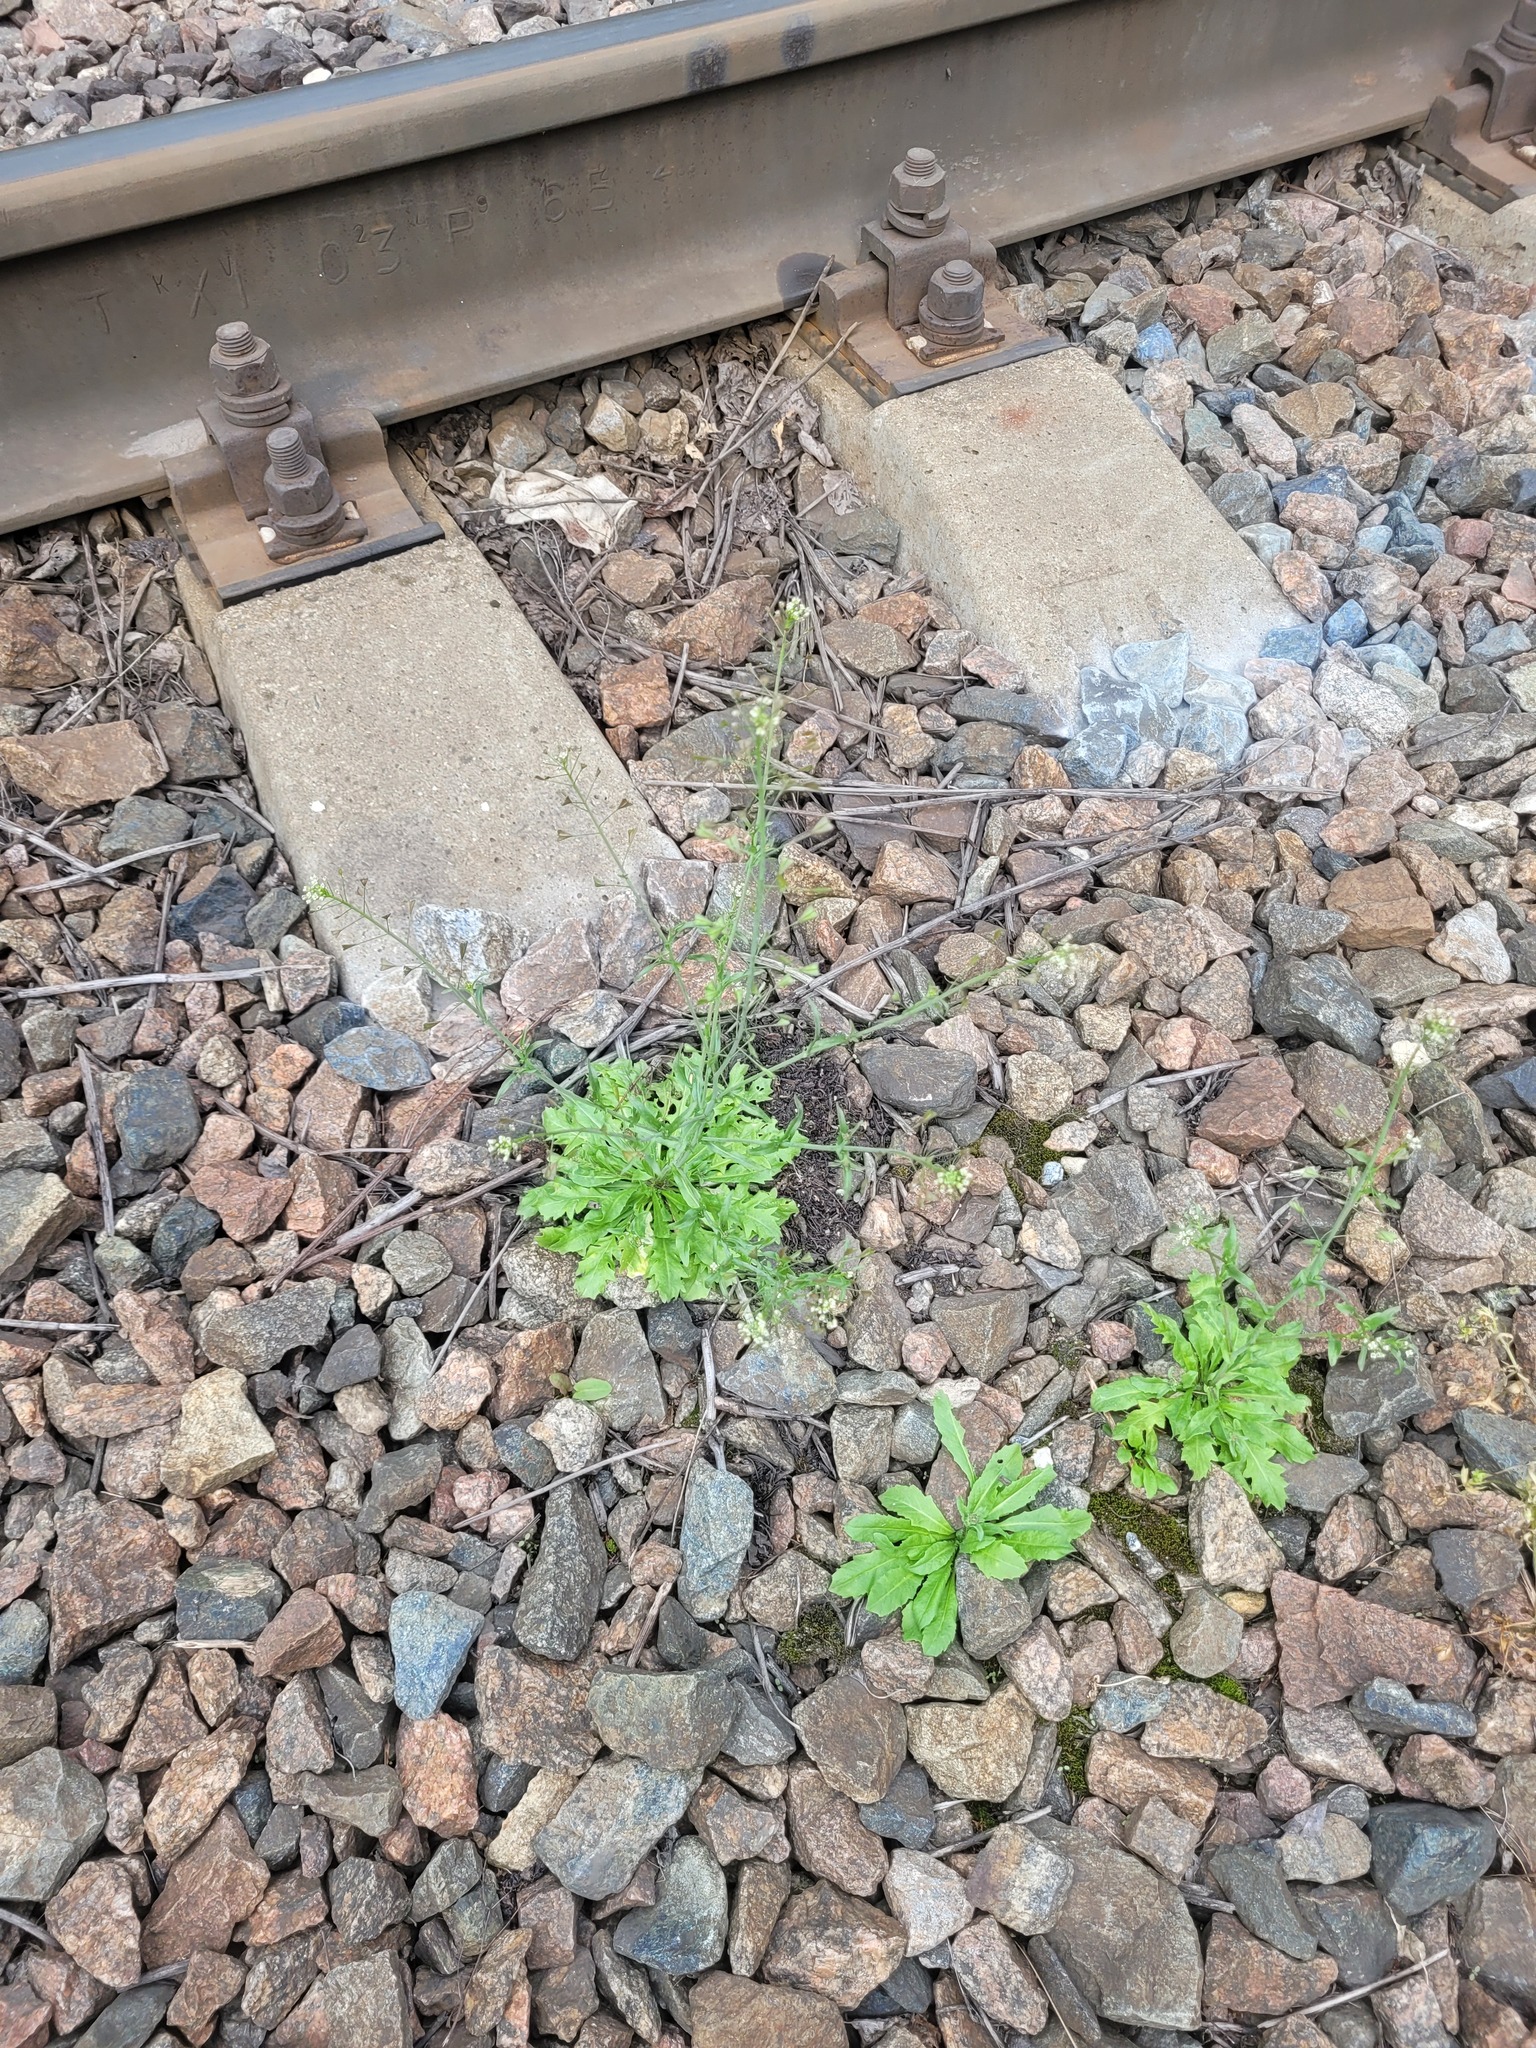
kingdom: Plantae
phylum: Tracheophyta
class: Magnoliopsida
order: Brassicales
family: Brassicaceae
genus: Capsella
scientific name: Capsella bursa-pastoris
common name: Shepherd's purse
